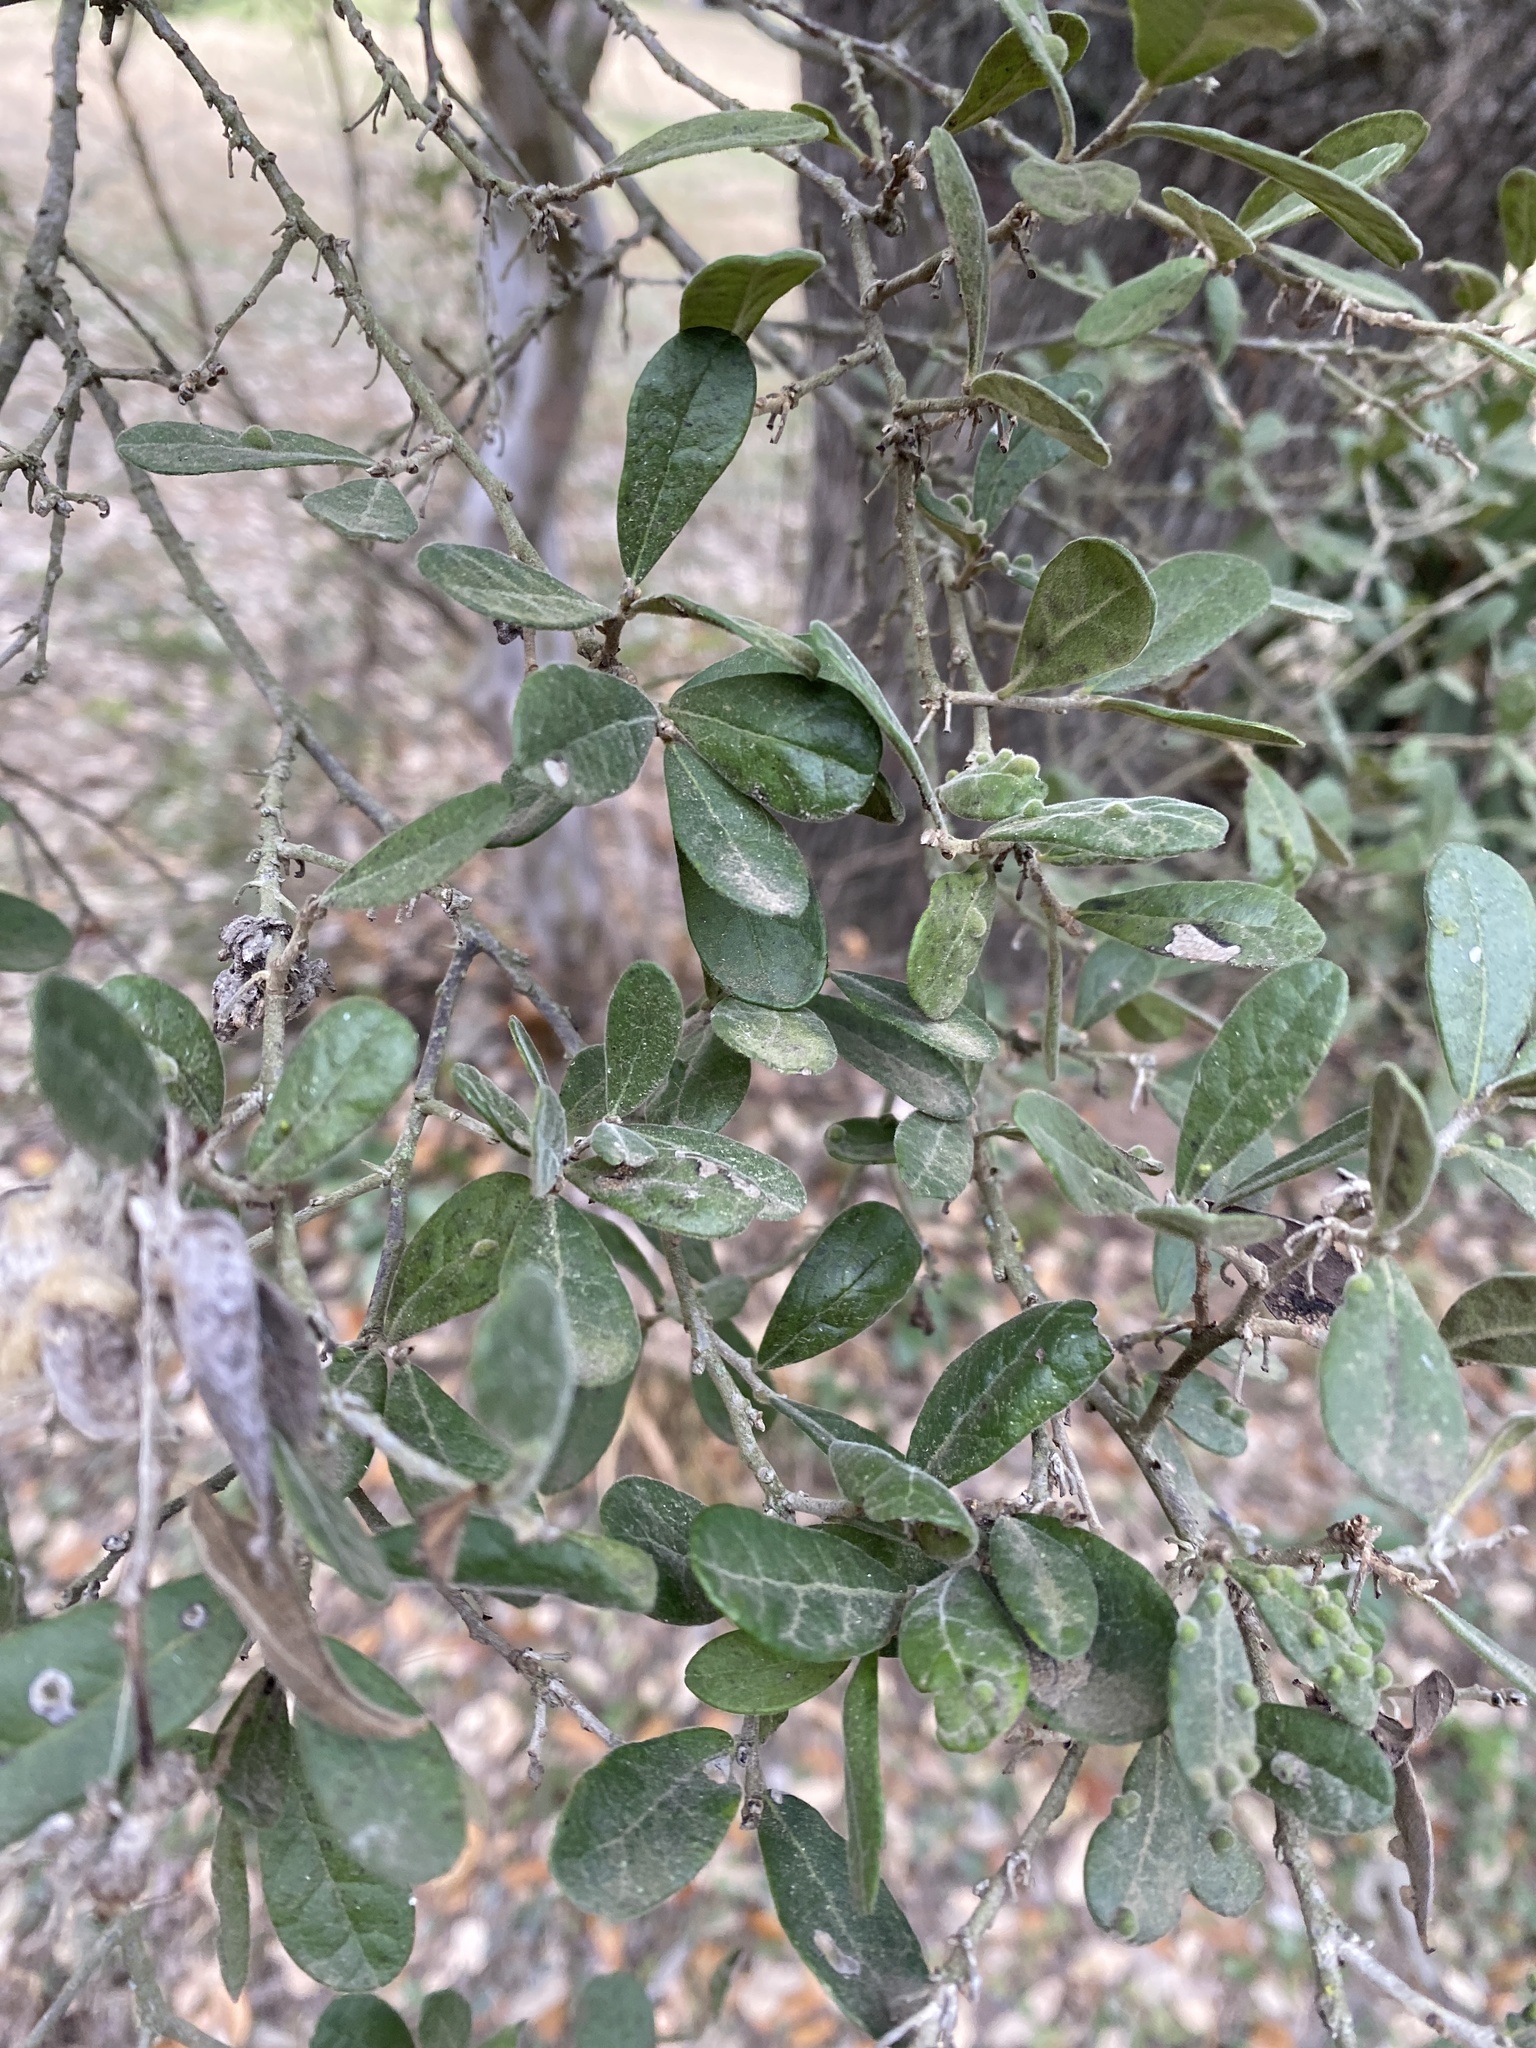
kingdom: Plantae
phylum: Tracheophyta
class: Magnoliopsida
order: Ericales
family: Ebenaceae
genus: Diospyros
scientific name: Diospyros texana
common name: Texas persimmon
